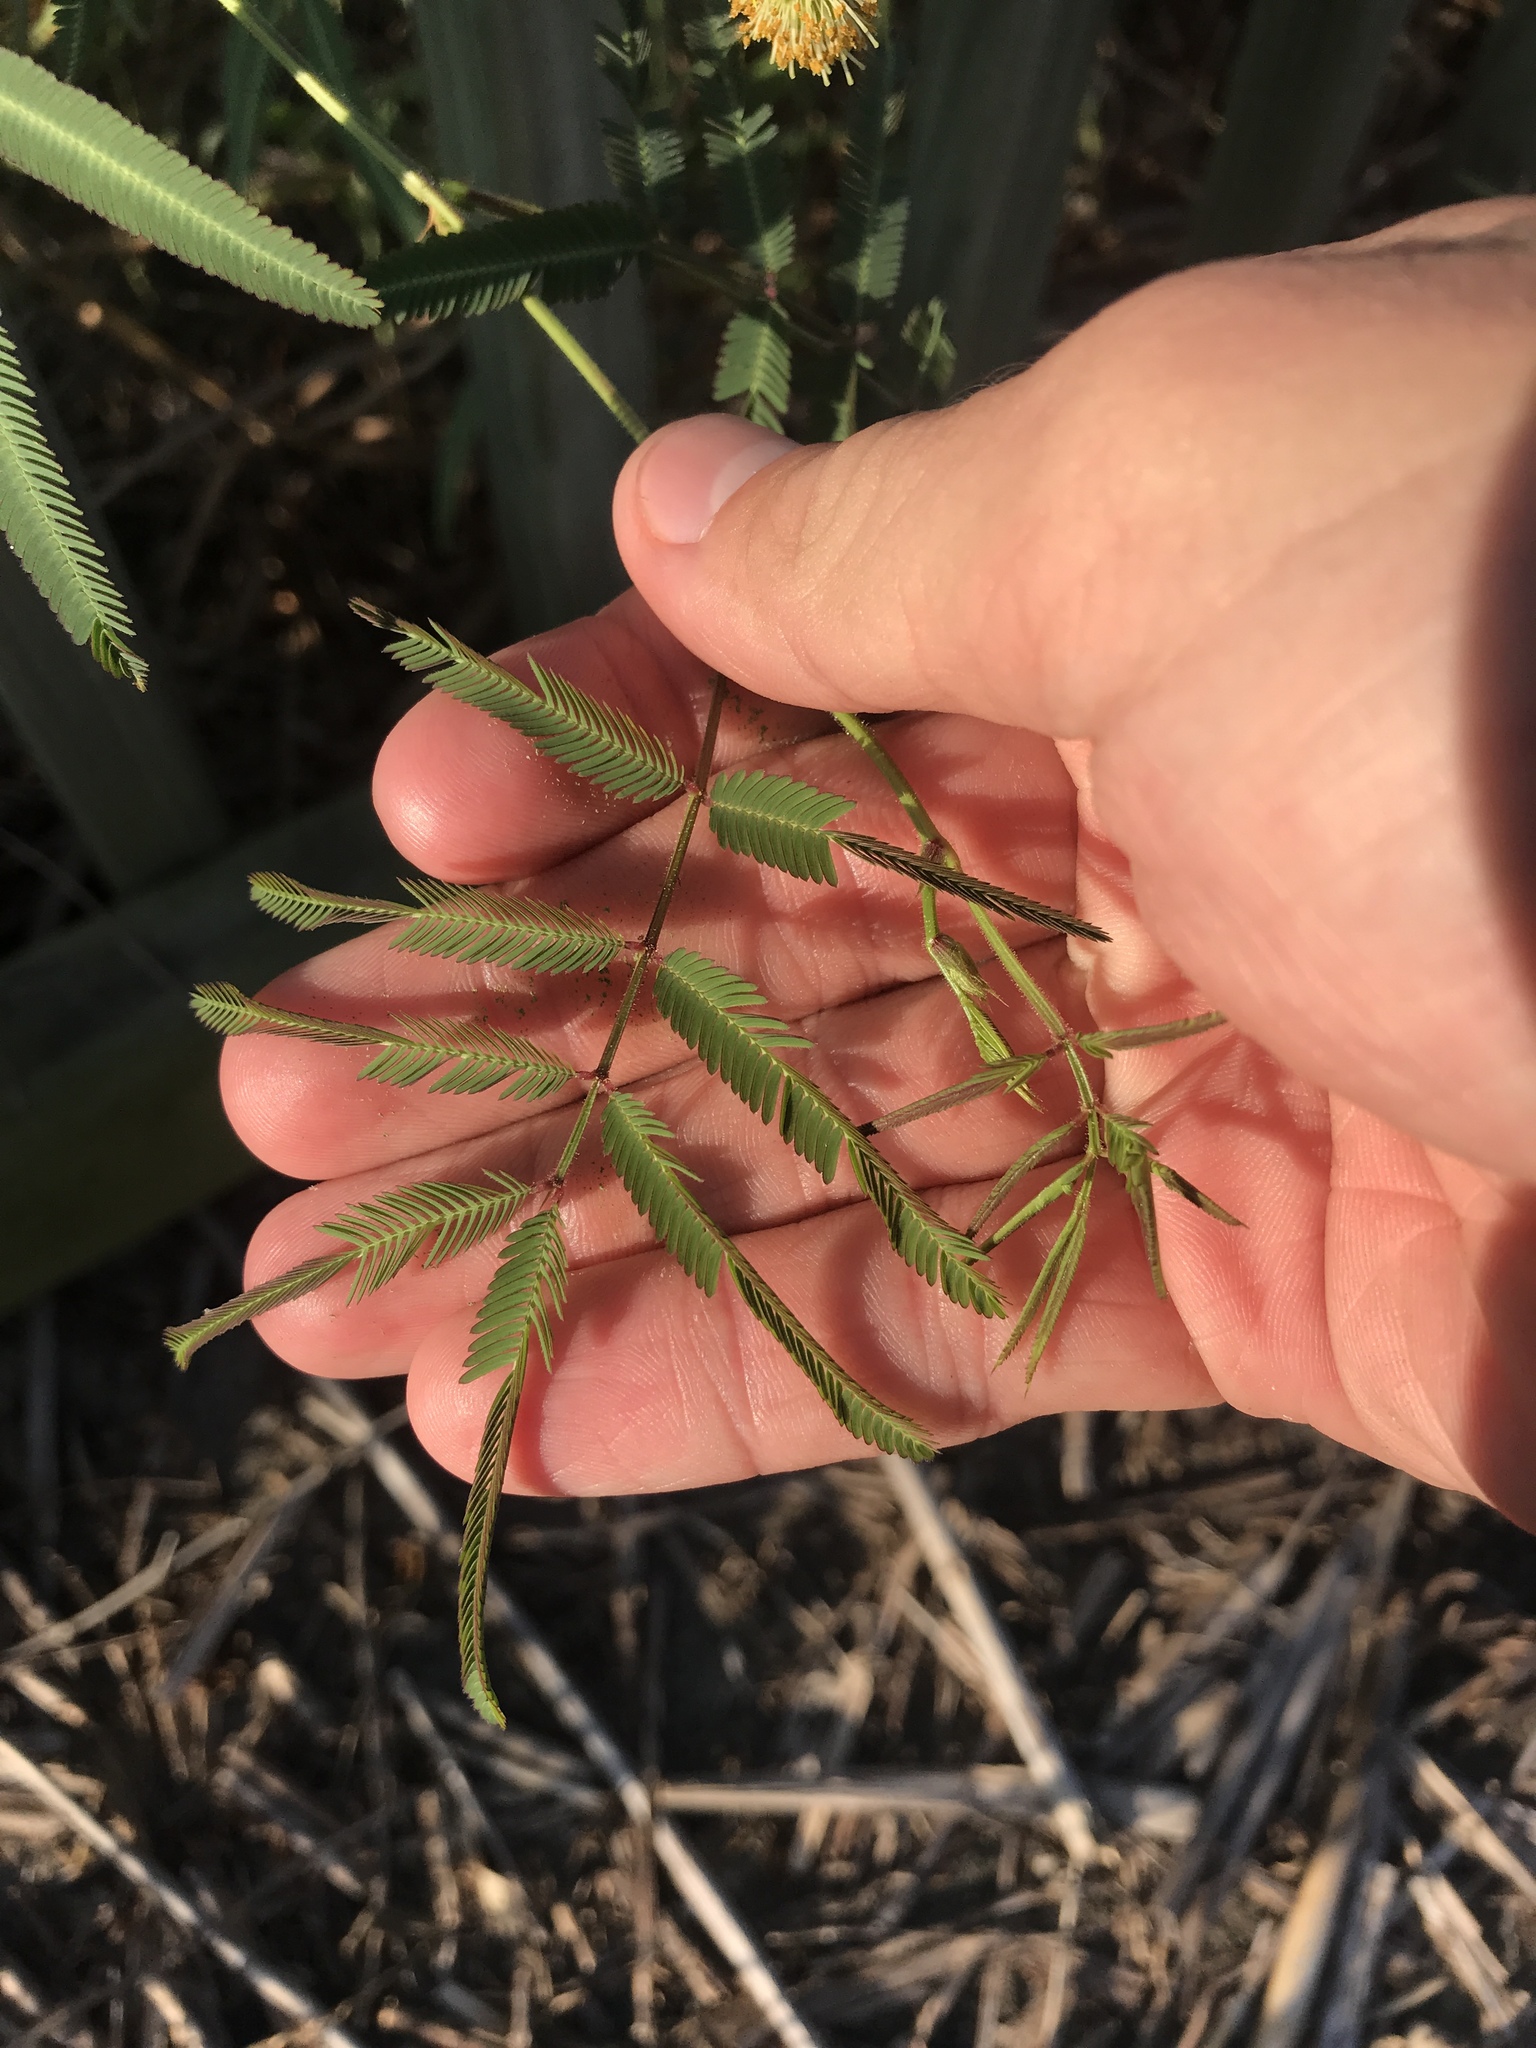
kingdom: Plantae
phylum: Tracheophyta
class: Magnoliopsida
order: Fabales
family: Fabaceae
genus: Neptunia
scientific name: Neptunia pubescens
